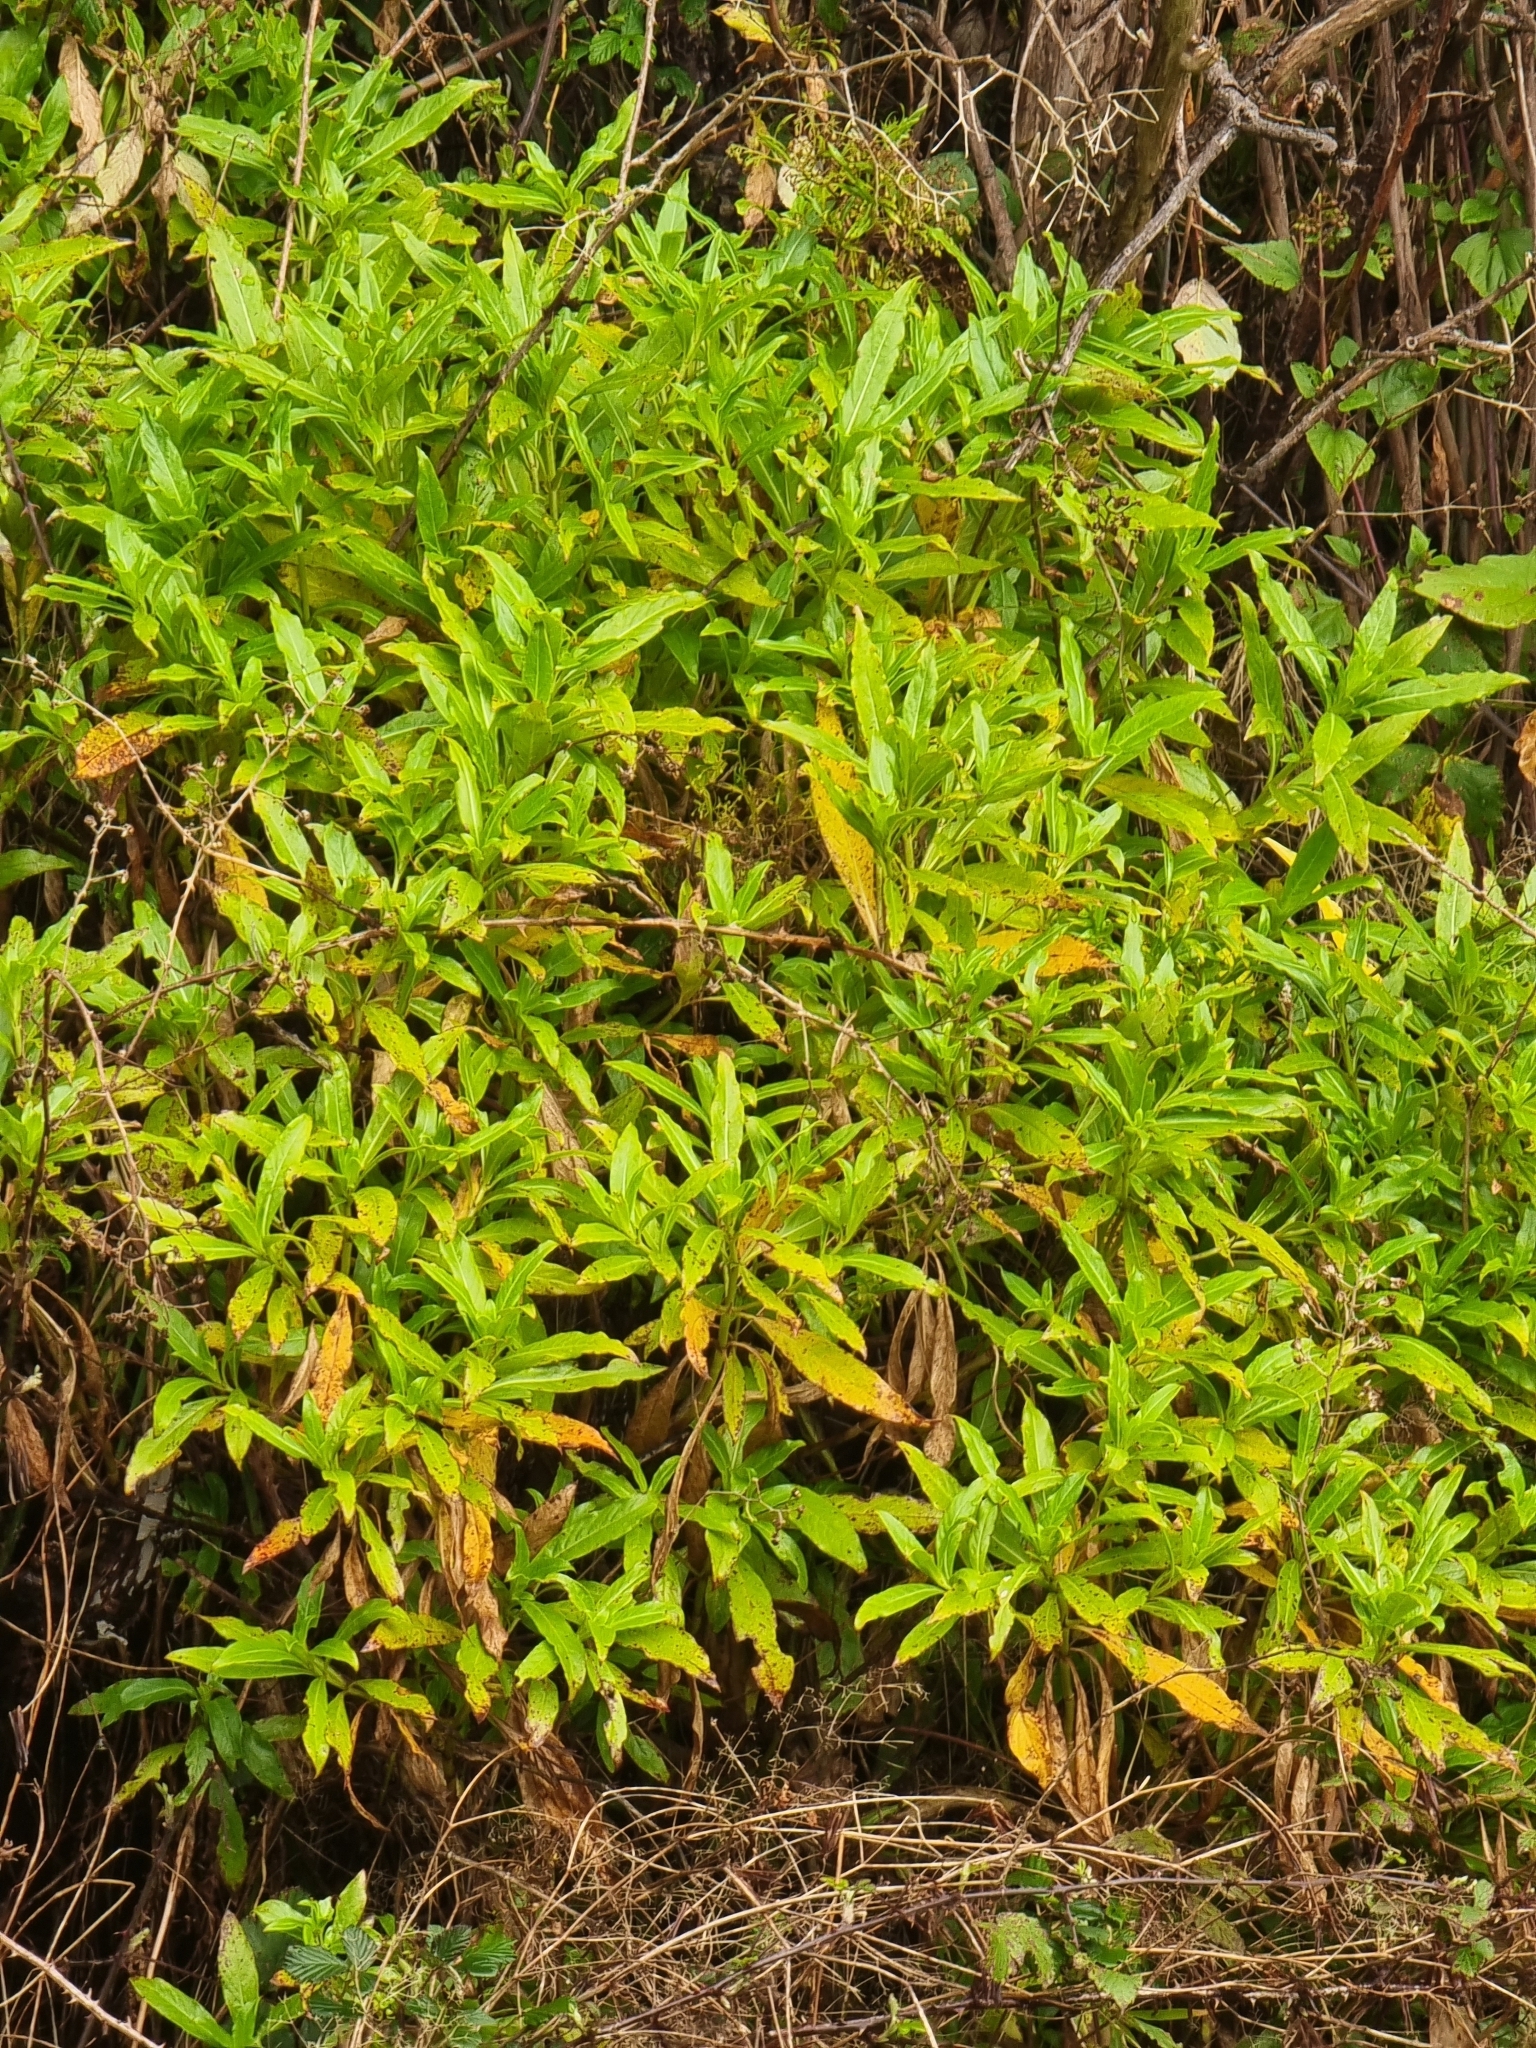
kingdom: Plantae
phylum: Tracheophyta
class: Magnoliopsida
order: Gentianales
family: Rubiaceae
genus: Phyllis
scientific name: Phyllis nobla
